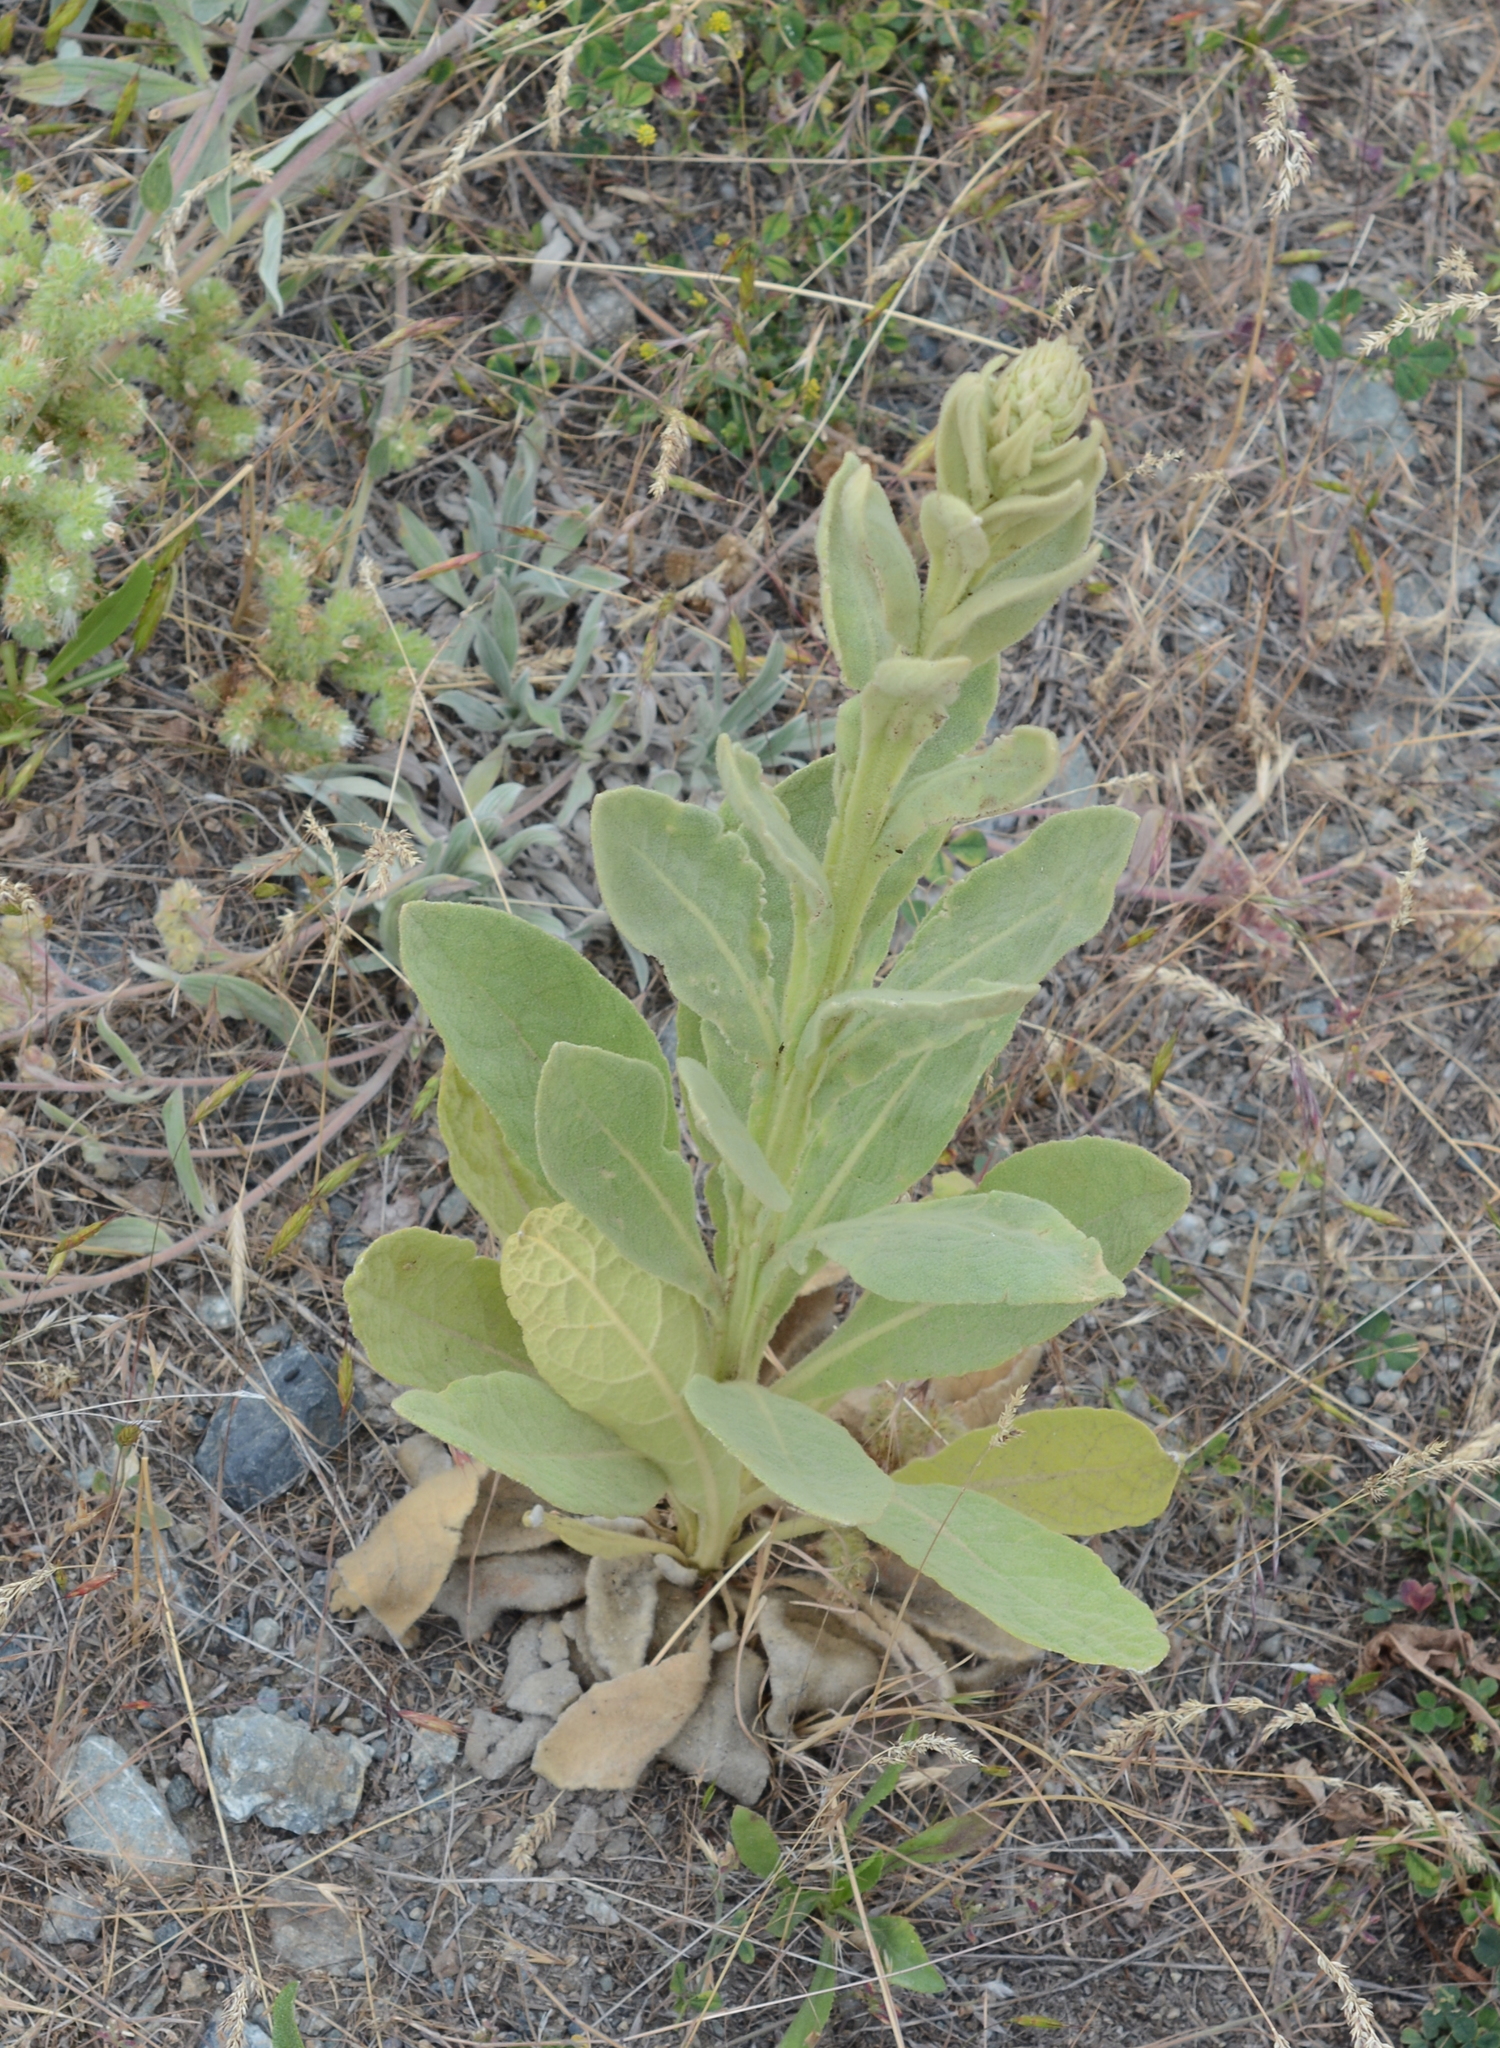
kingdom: Plantae
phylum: Tracheophyta
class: Magnoliopsida
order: Lamiales
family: Scrophulariaceae
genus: Verbascum
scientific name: Verbascum thapsus
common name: Common mullein
